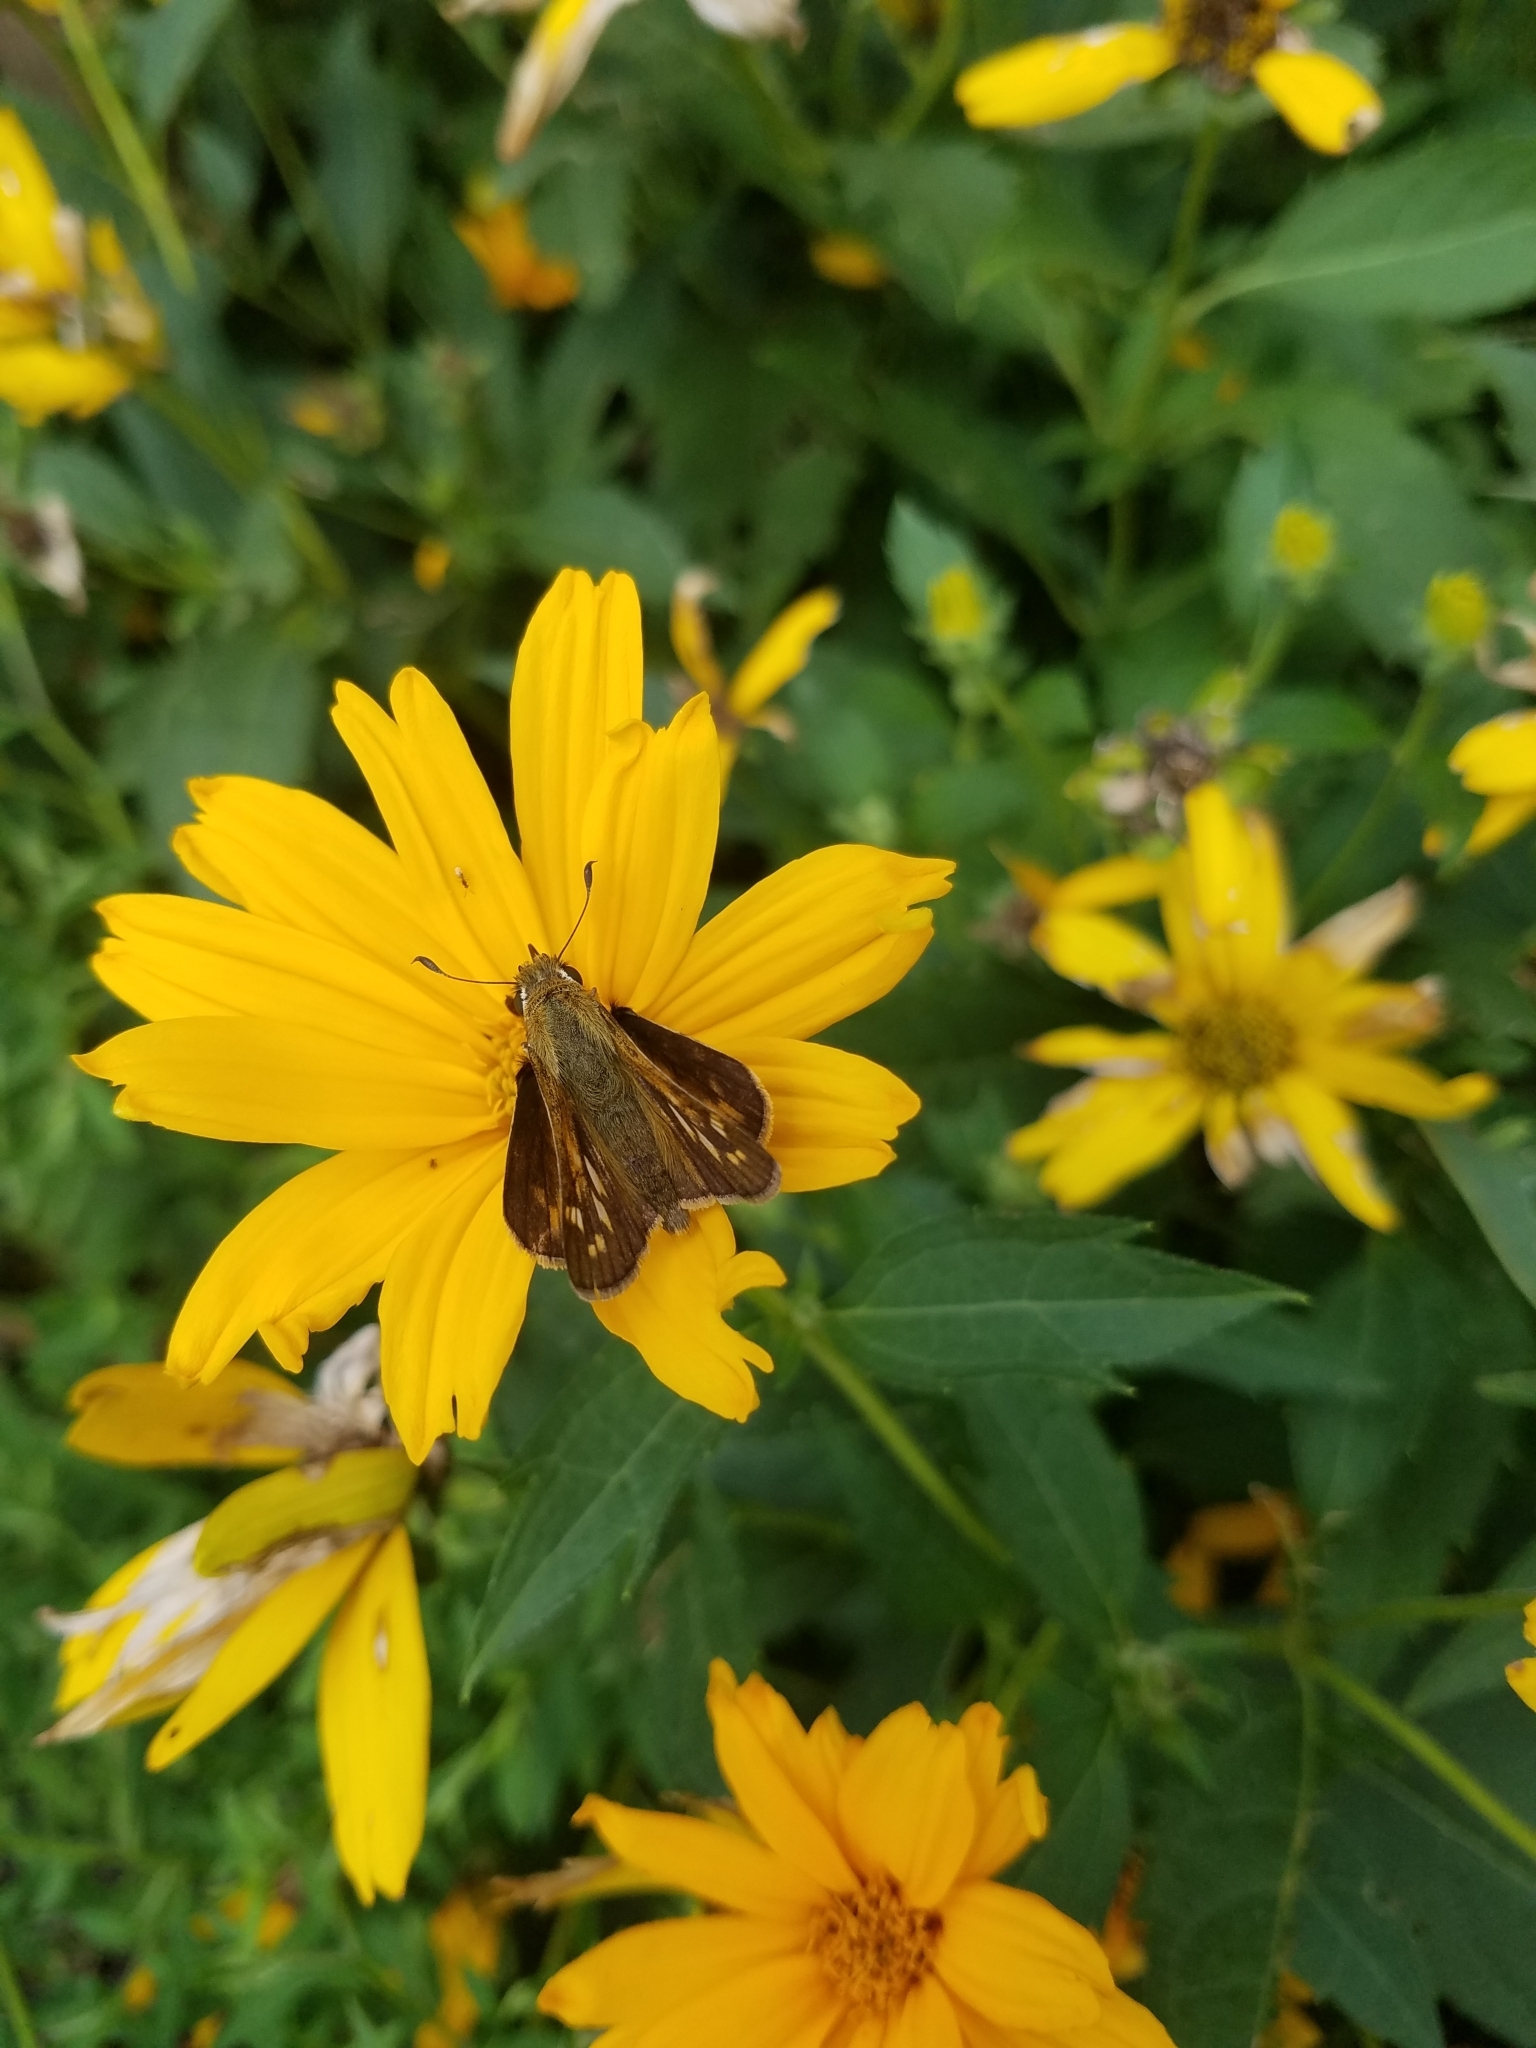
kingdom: Animalia
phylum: Arthropoda
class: Insecta
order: Lepidoptera
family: Hesperiidae
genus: Atalopedes
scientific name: Atalopedes
